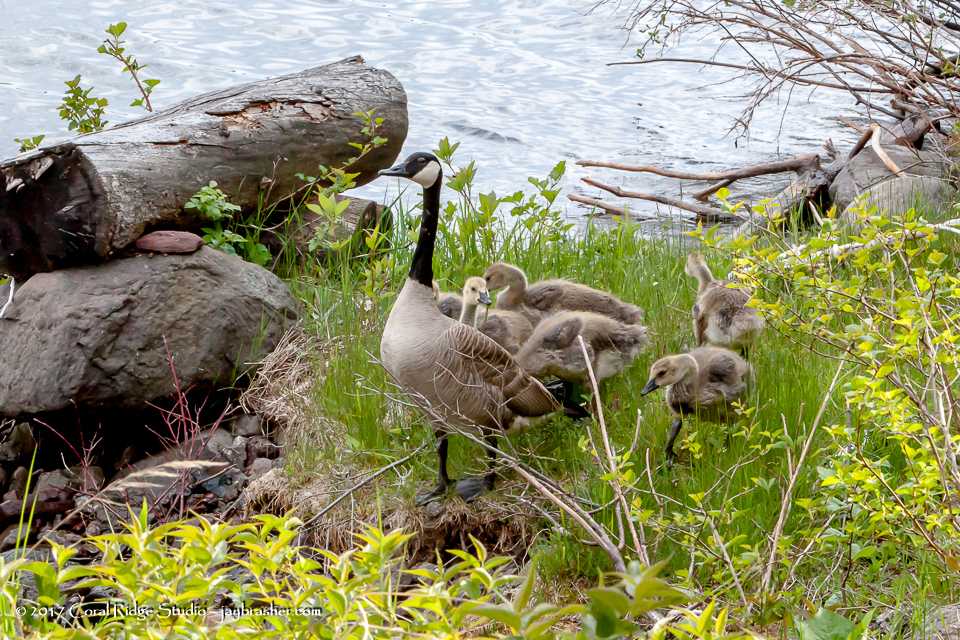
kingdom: Animalia
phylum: Chordata
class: Aves
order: Anseriformes
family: Anatidae
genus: Branta
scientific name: Branta canadensis
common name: Canada goose
